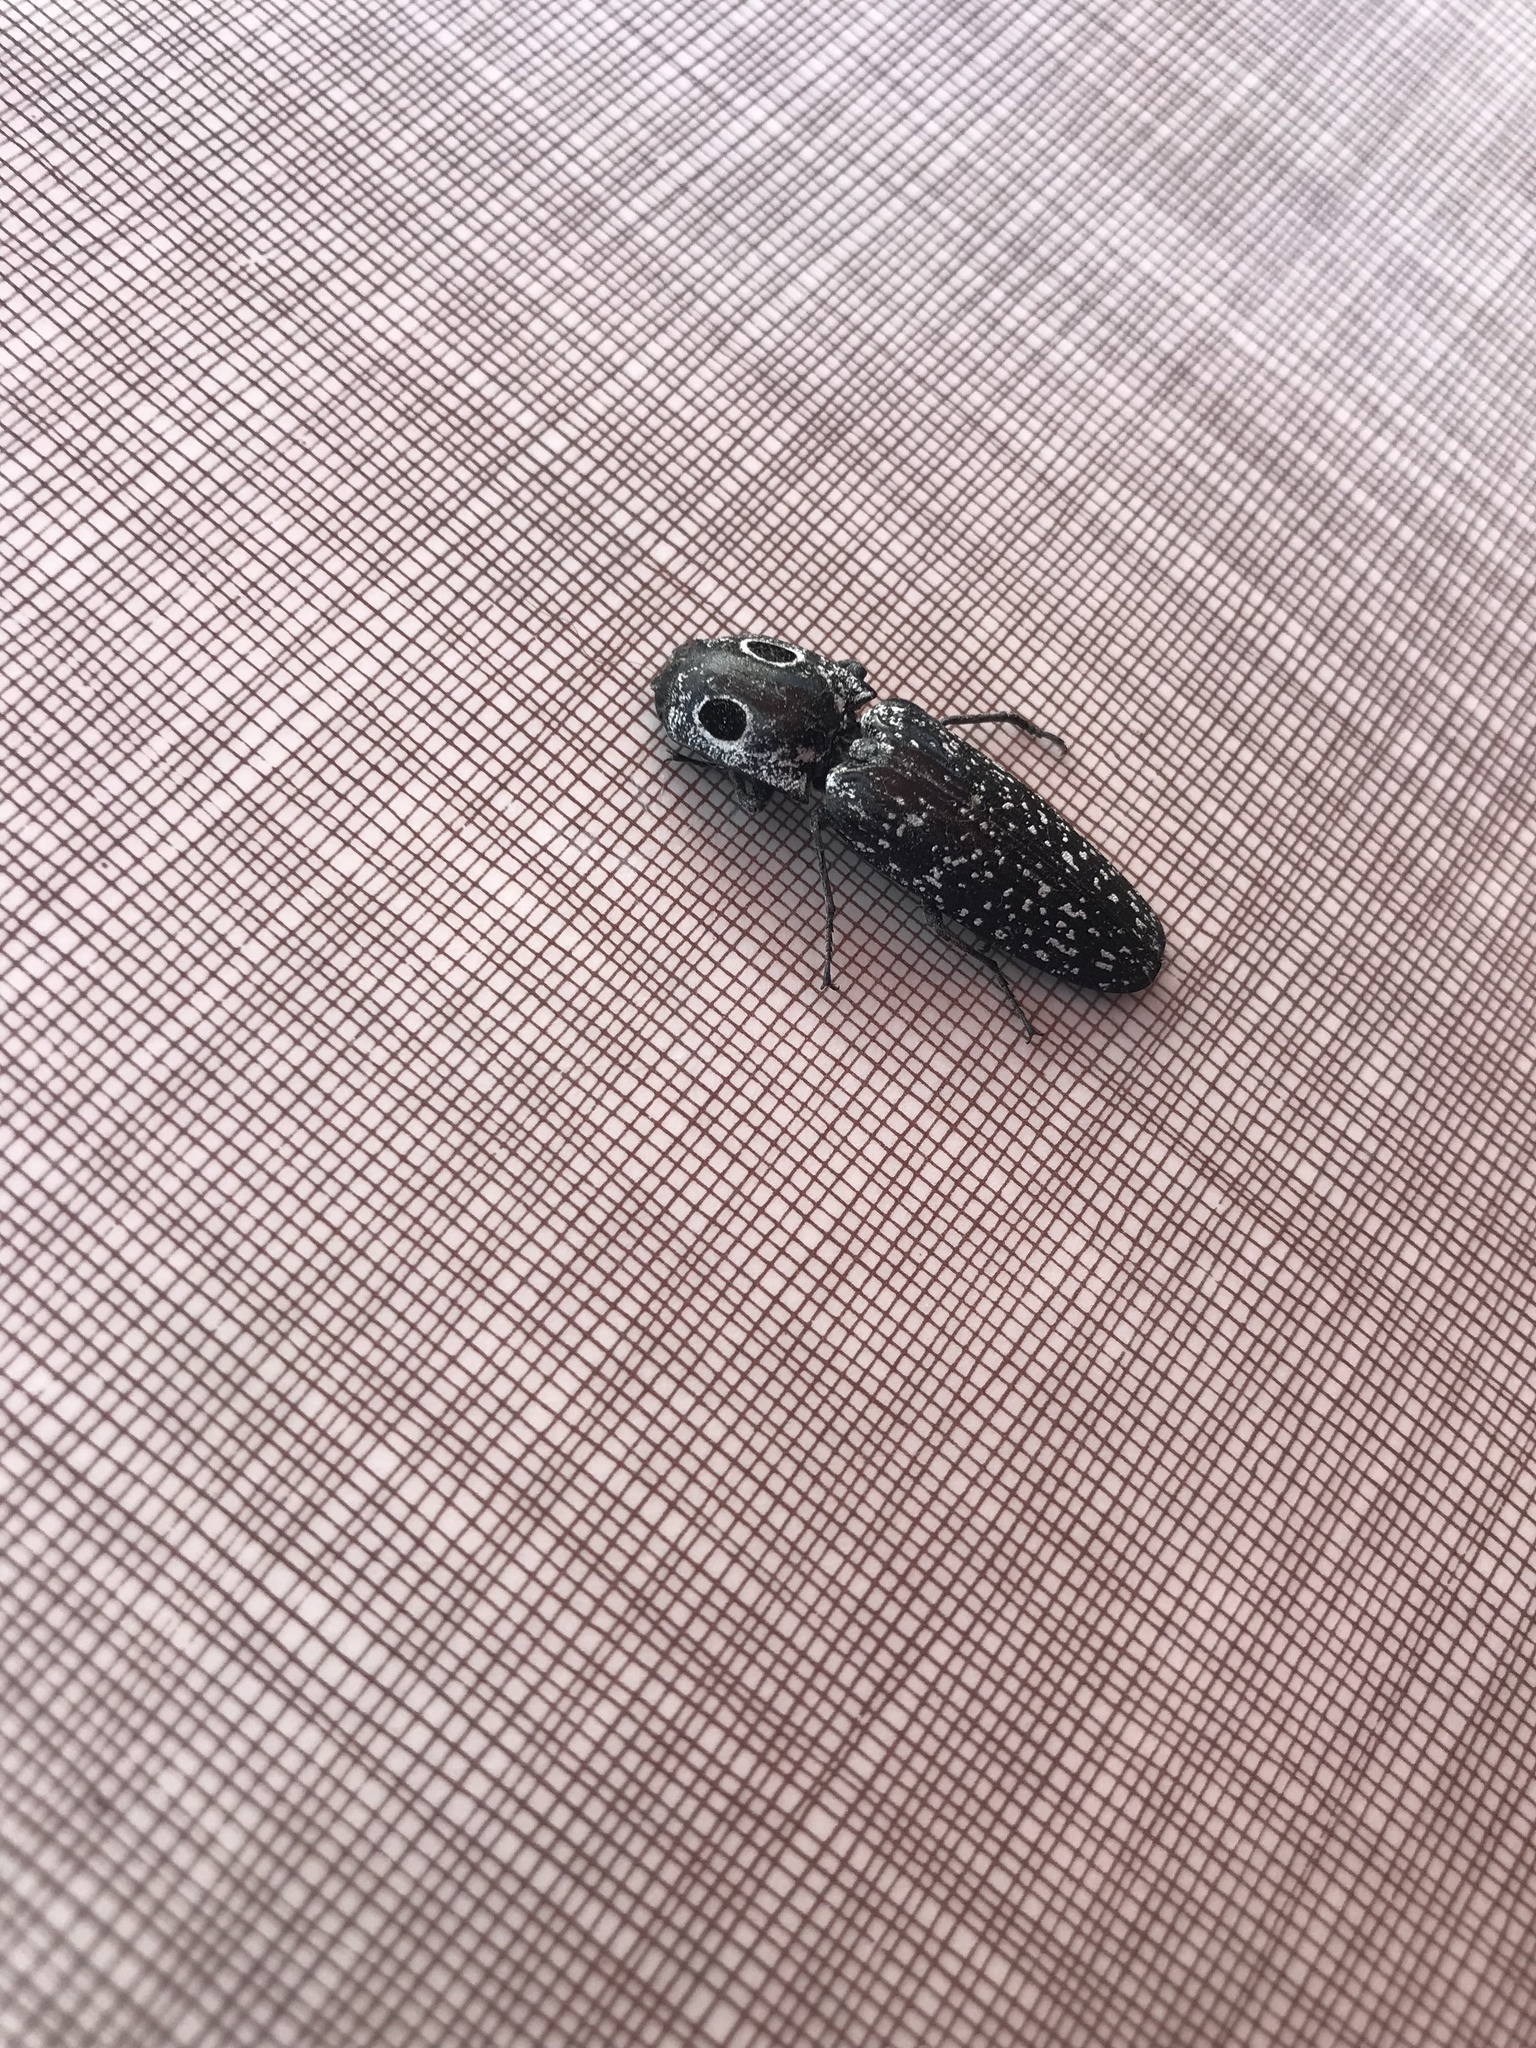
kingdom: Animalia
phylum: Arthropoda
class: Insecta
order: Coleoptera
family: Elateridae
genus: Alaus
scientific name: Alaus oculatus
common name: Eastern eyed click beetle
